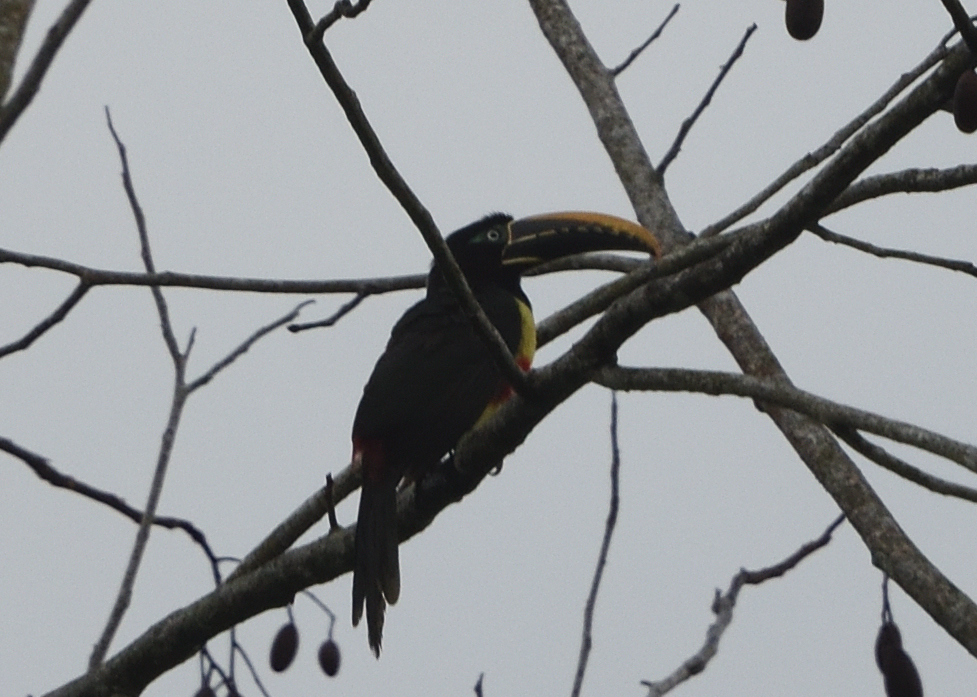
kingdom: Animalia
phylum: Chordata
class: Aves
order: Piciformes
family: Ramphastidae
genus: Pteroglossus
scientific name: Pteroglossus castanotis
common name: Chestnut-eared aracari
